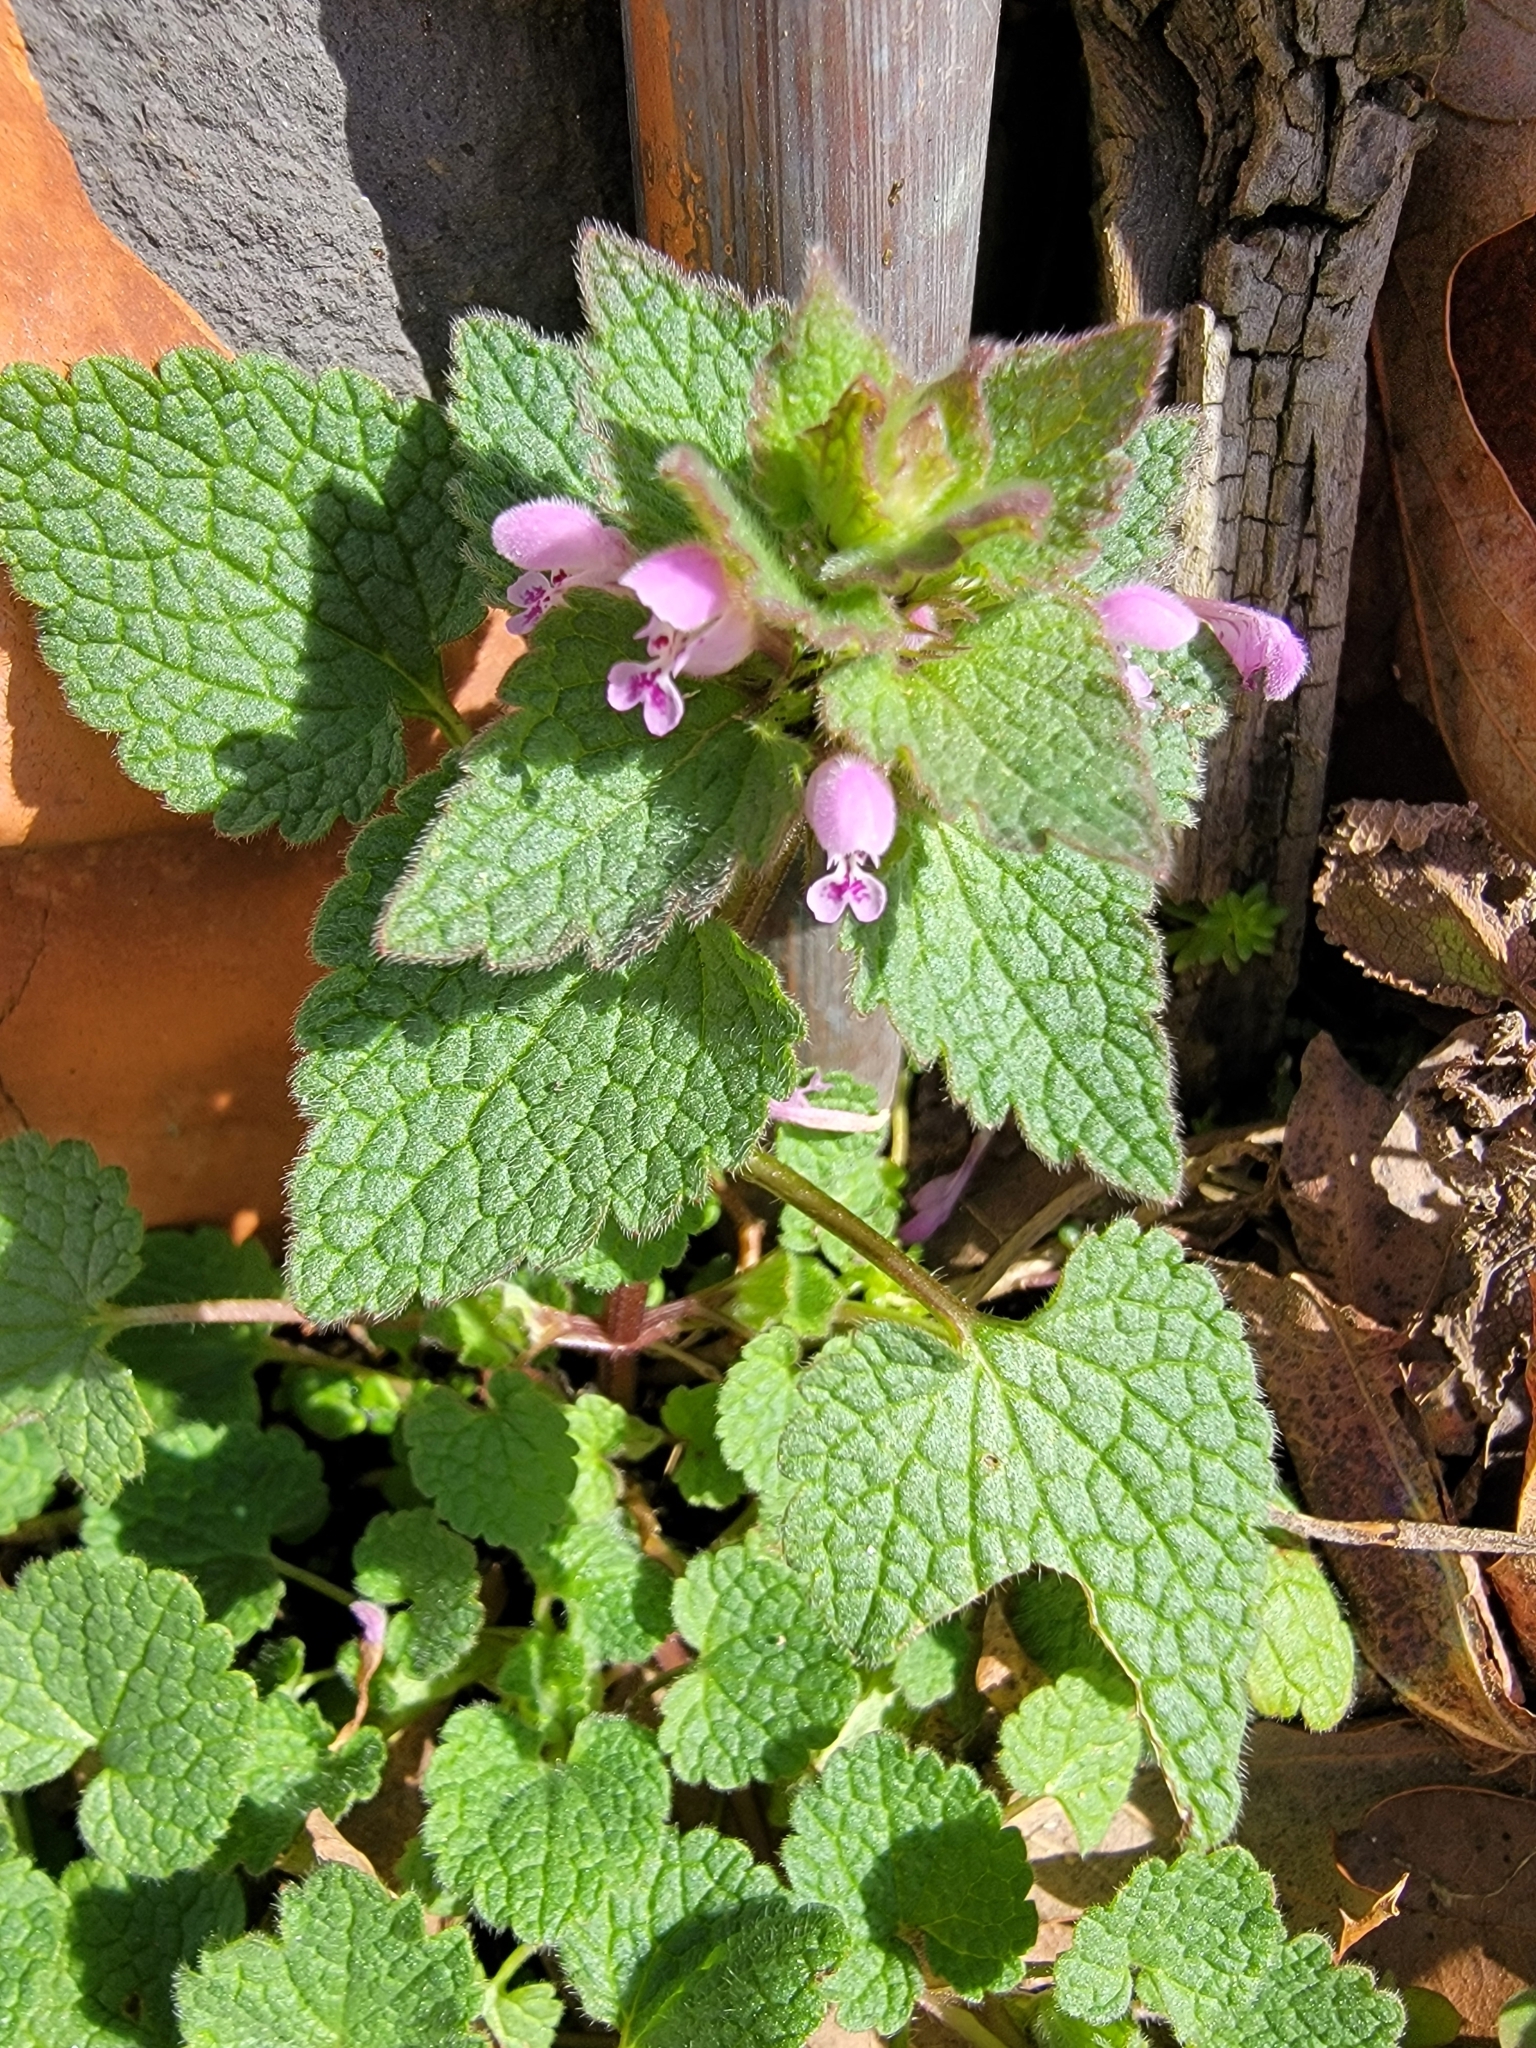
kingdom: Plantae
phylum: Tracheophyta
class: Magnoliopsida
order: Lamiales
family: Lamiaceae
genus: Lamium
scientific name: Lamium purpureum
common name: Red dead-nettle
